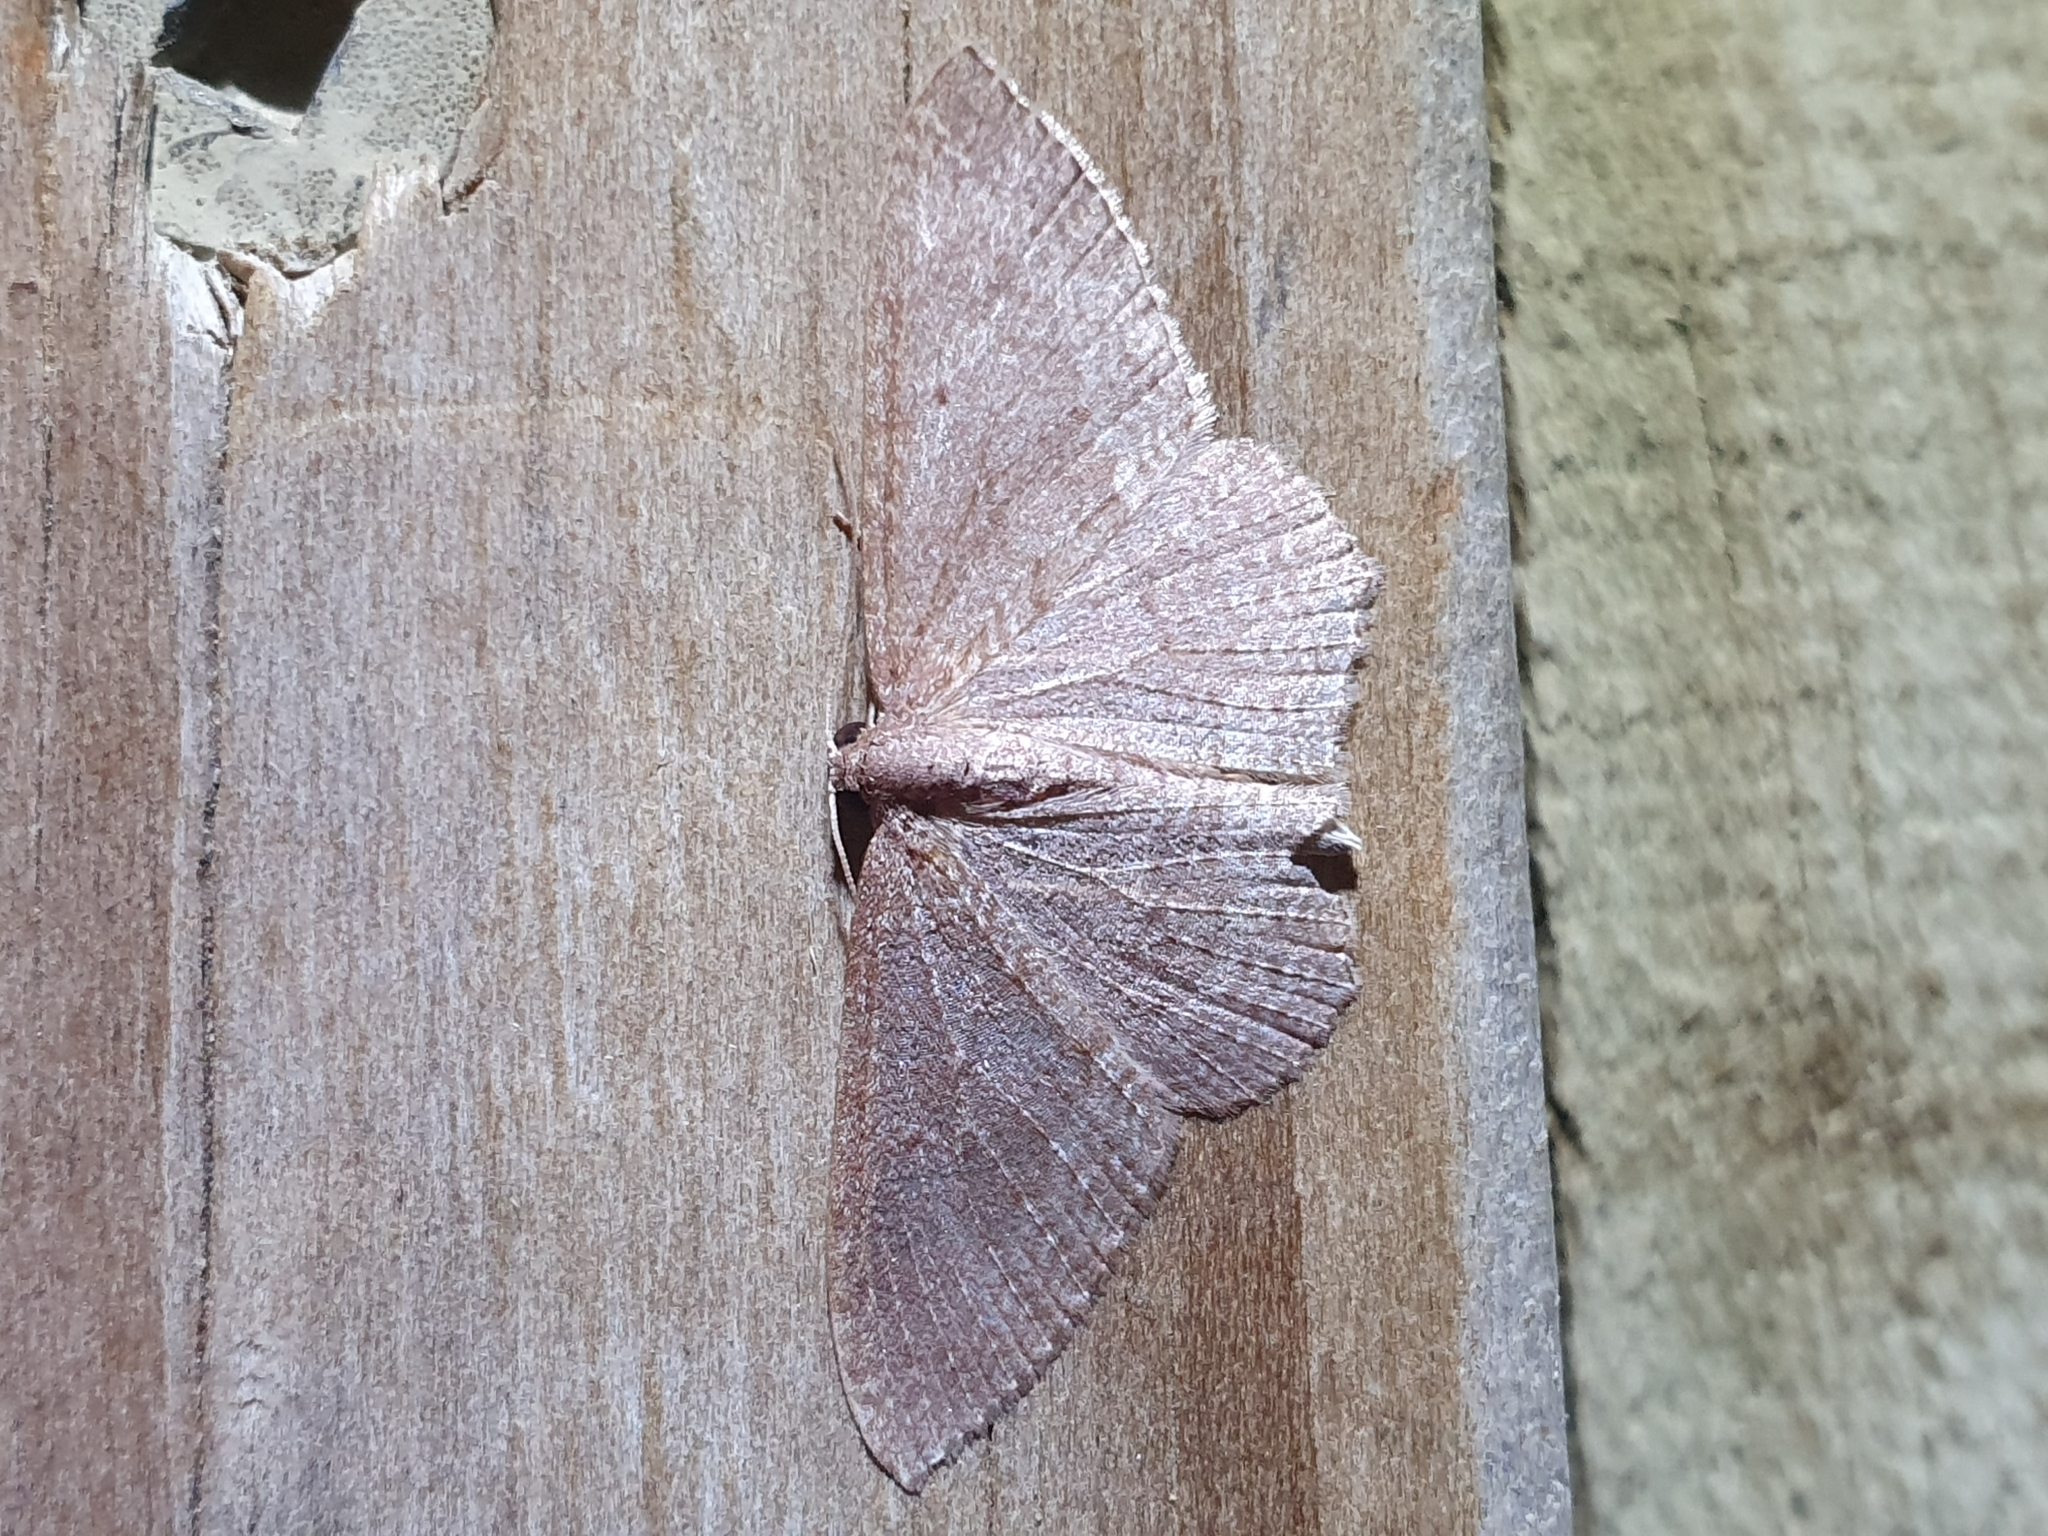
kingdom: Animalia
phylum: Arthropoda
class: Insecta
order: Lepidoptera
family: Geometridae
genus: Poecilasthena
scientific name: Poecilasthena subpurpureata
